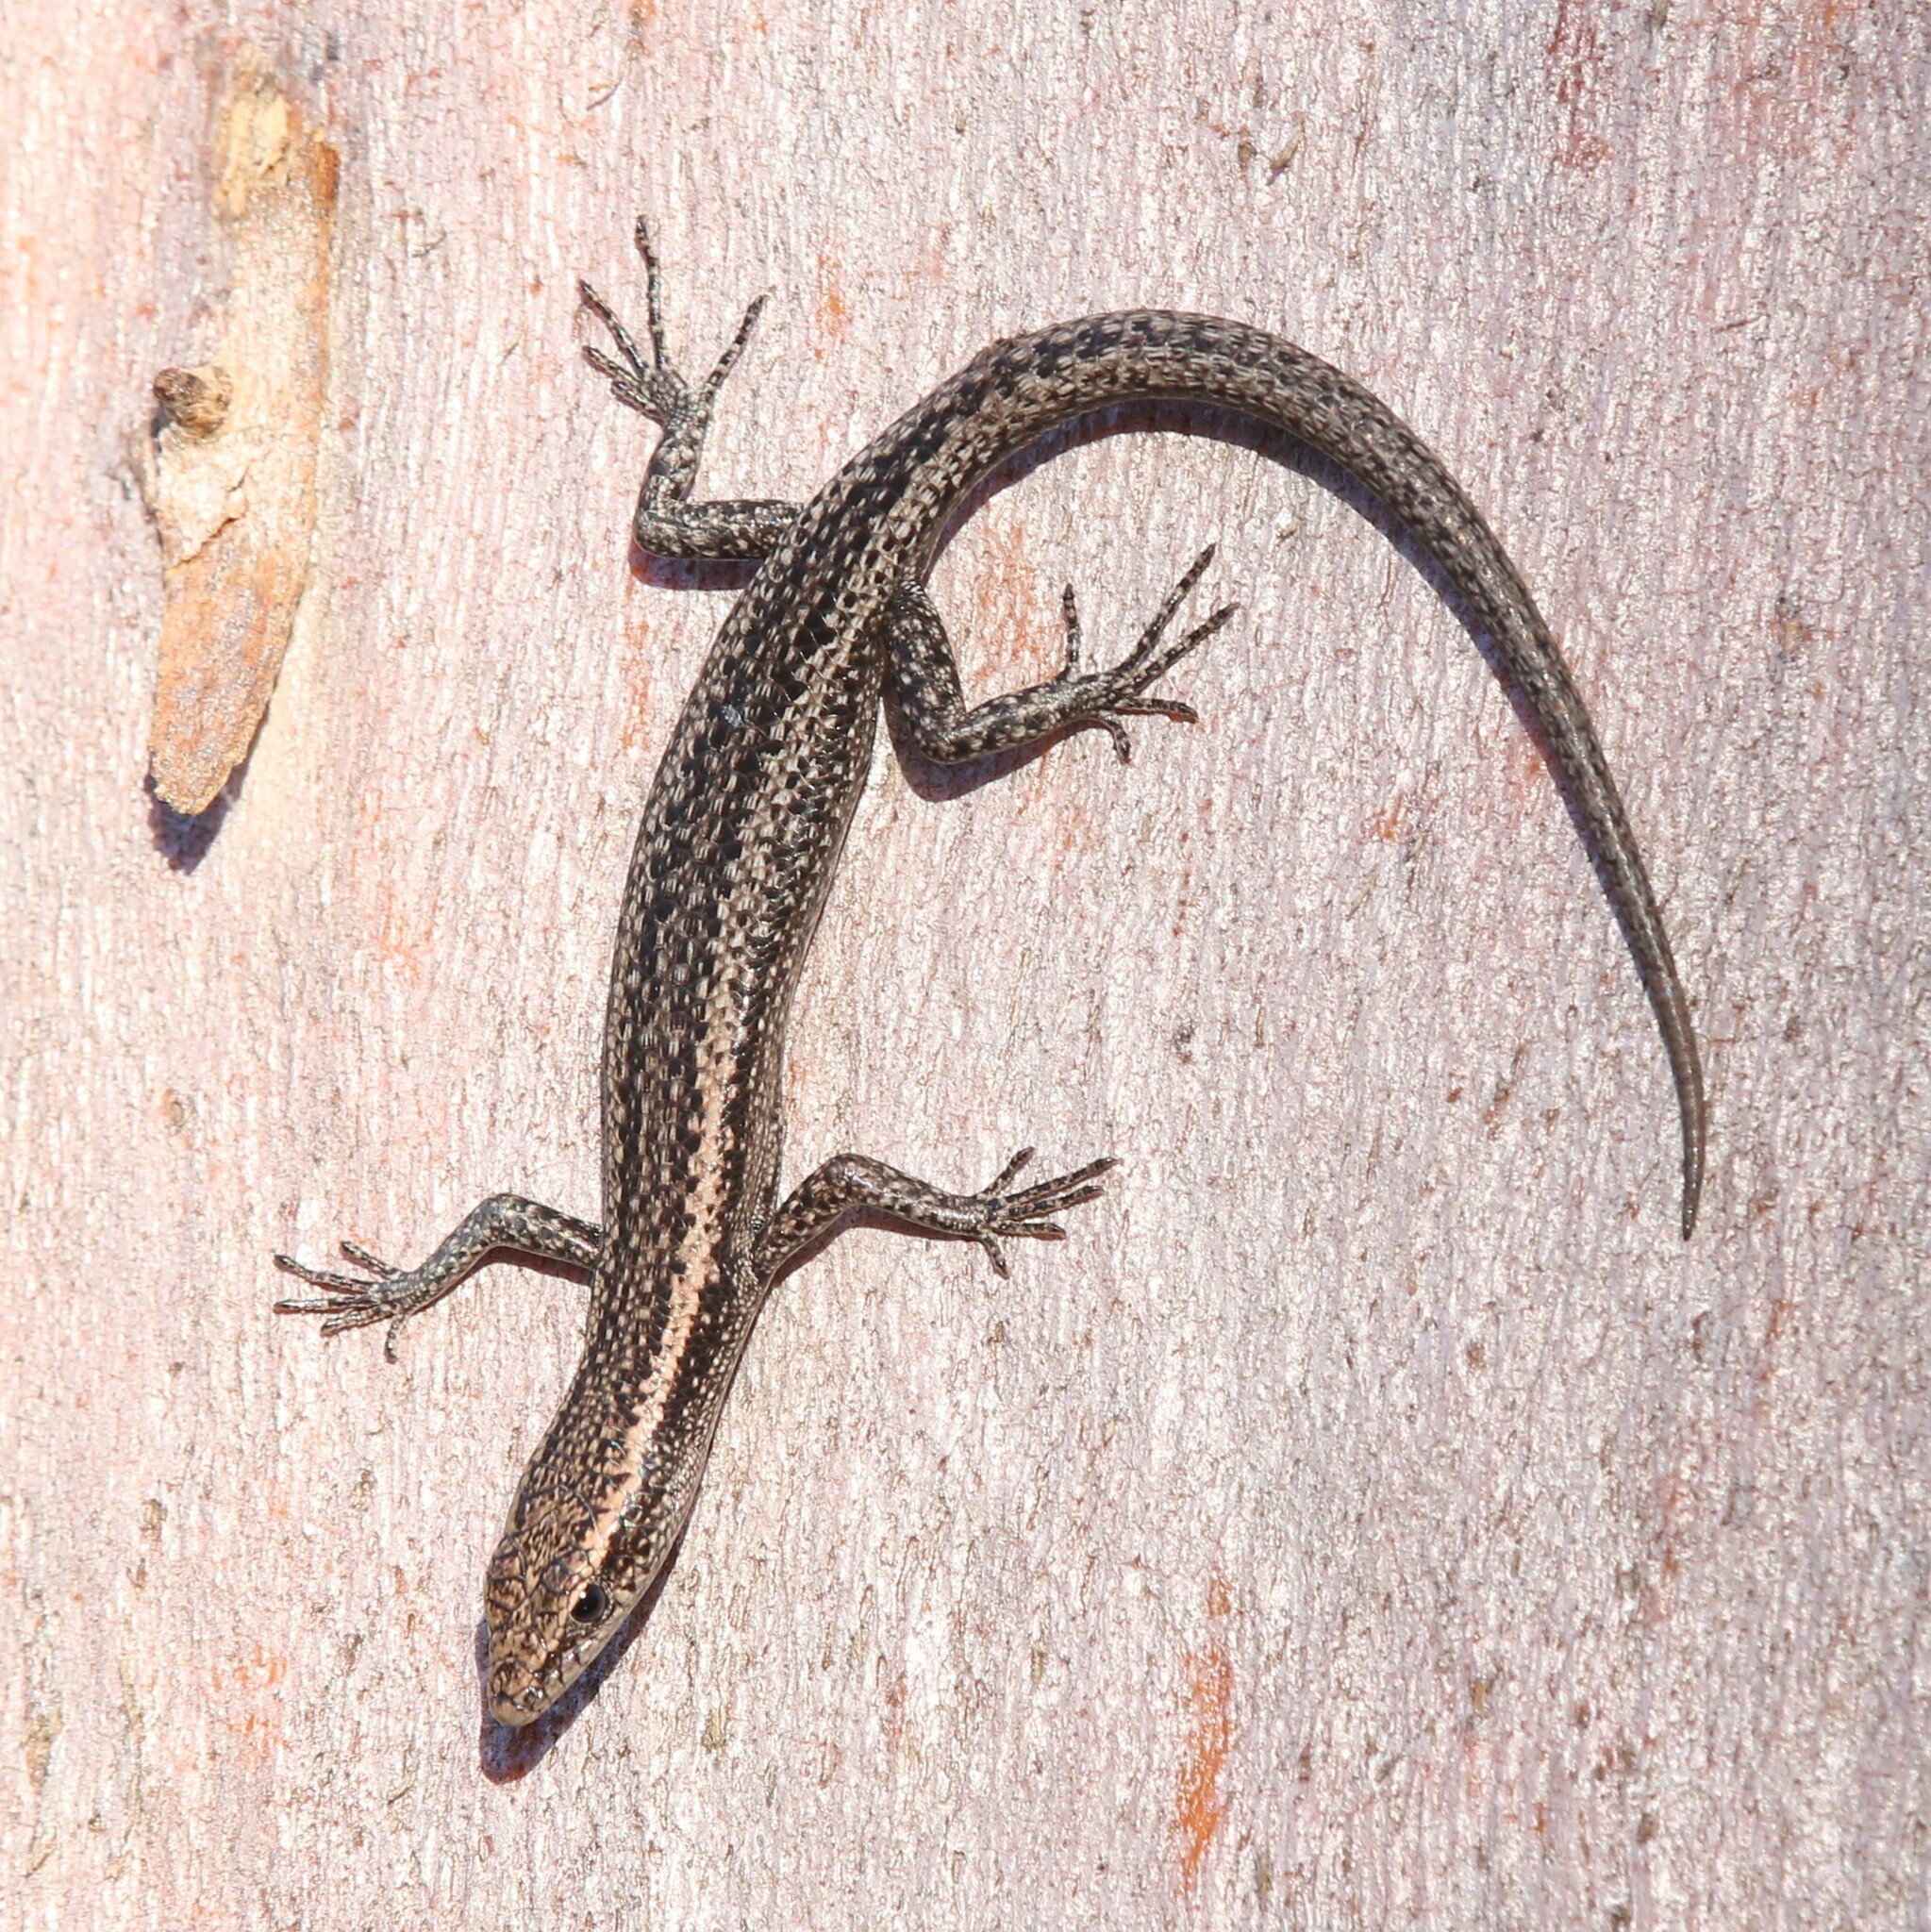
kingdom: Animalia
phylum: Chordata
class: Squamata
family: Scincidae
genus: Cryptoblepharus
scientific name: Cryptoblepharus buchananii
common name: Buchanan's snake-eyed skink
